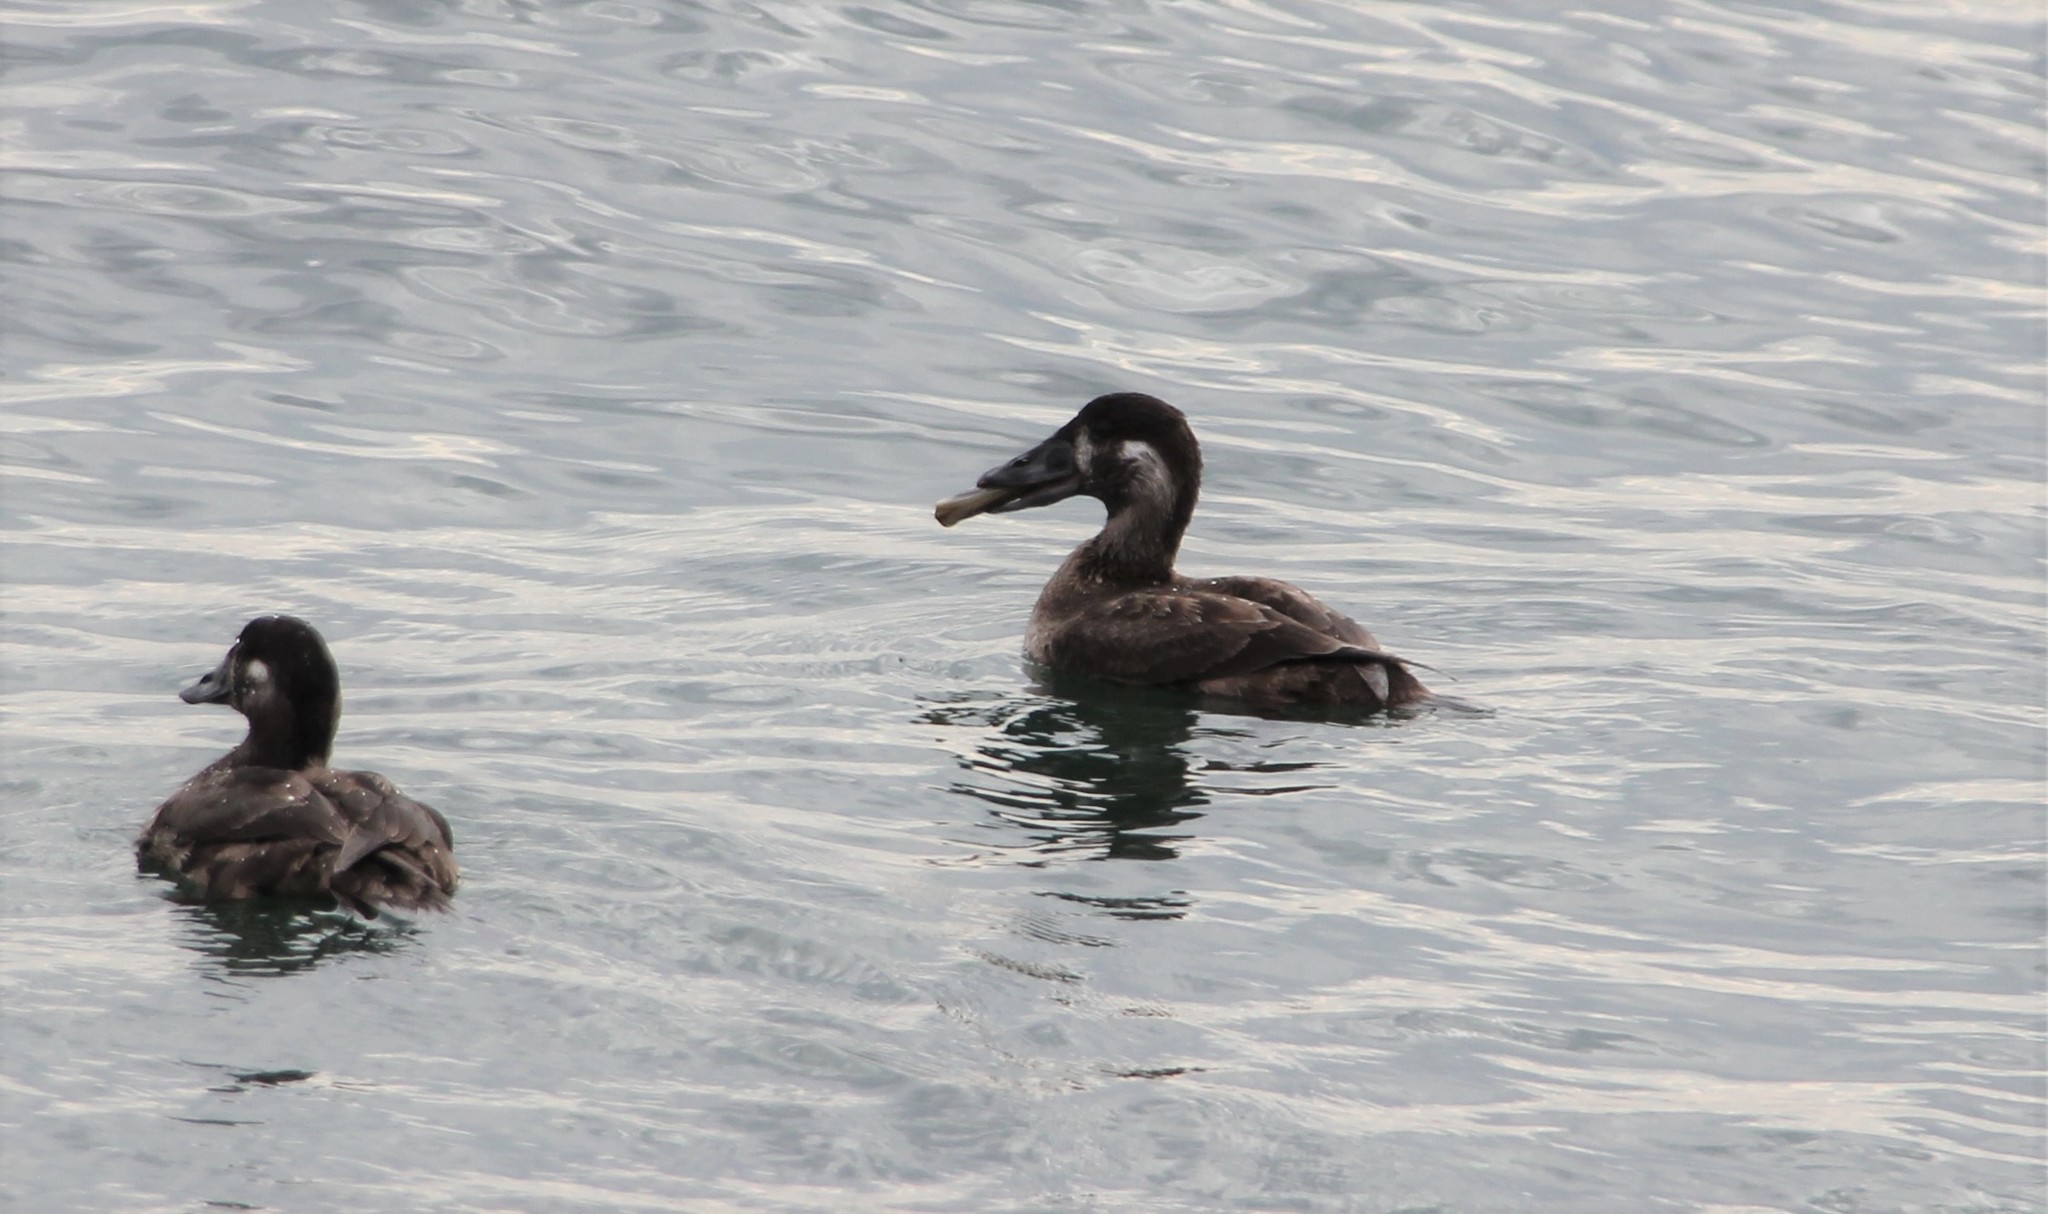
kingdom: Animalia
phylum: Chordata
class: Aves
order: Anseriformes
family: Anatidae
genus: Melanitta
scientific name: Melanitta perspicillata
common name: Surf scoter
